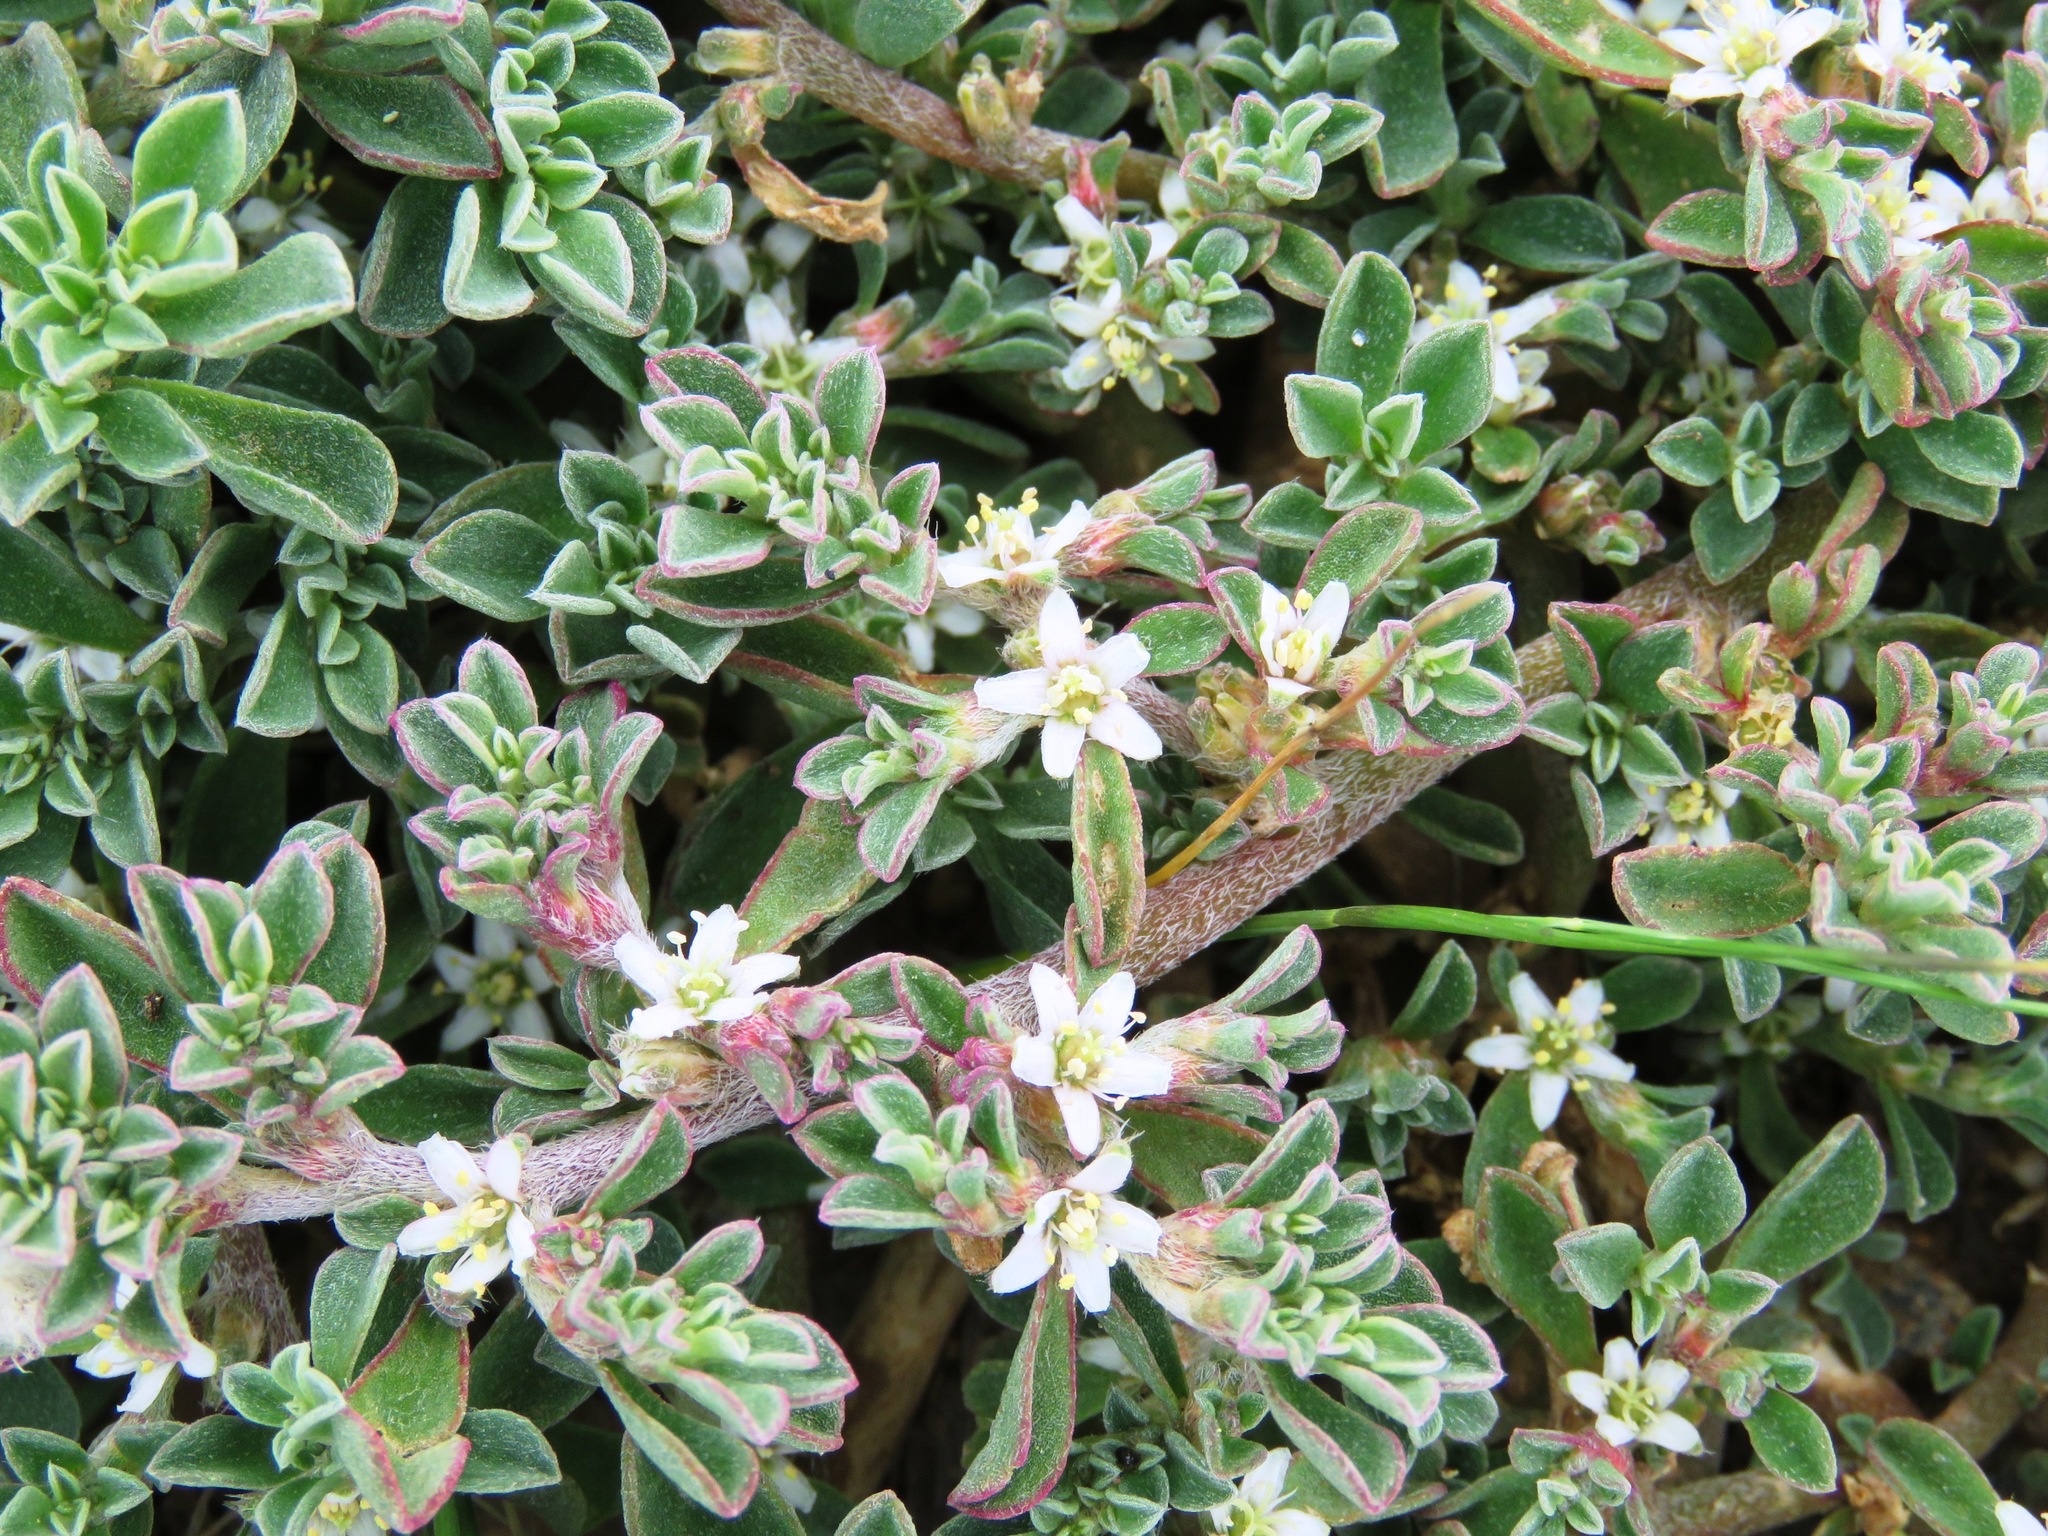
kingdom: Plantae
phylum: Tracheophyta
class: Magnoliopsida
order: Caryophyllales
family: Aizoaceae
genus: Aizoon
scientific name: Aizoon pubescens
